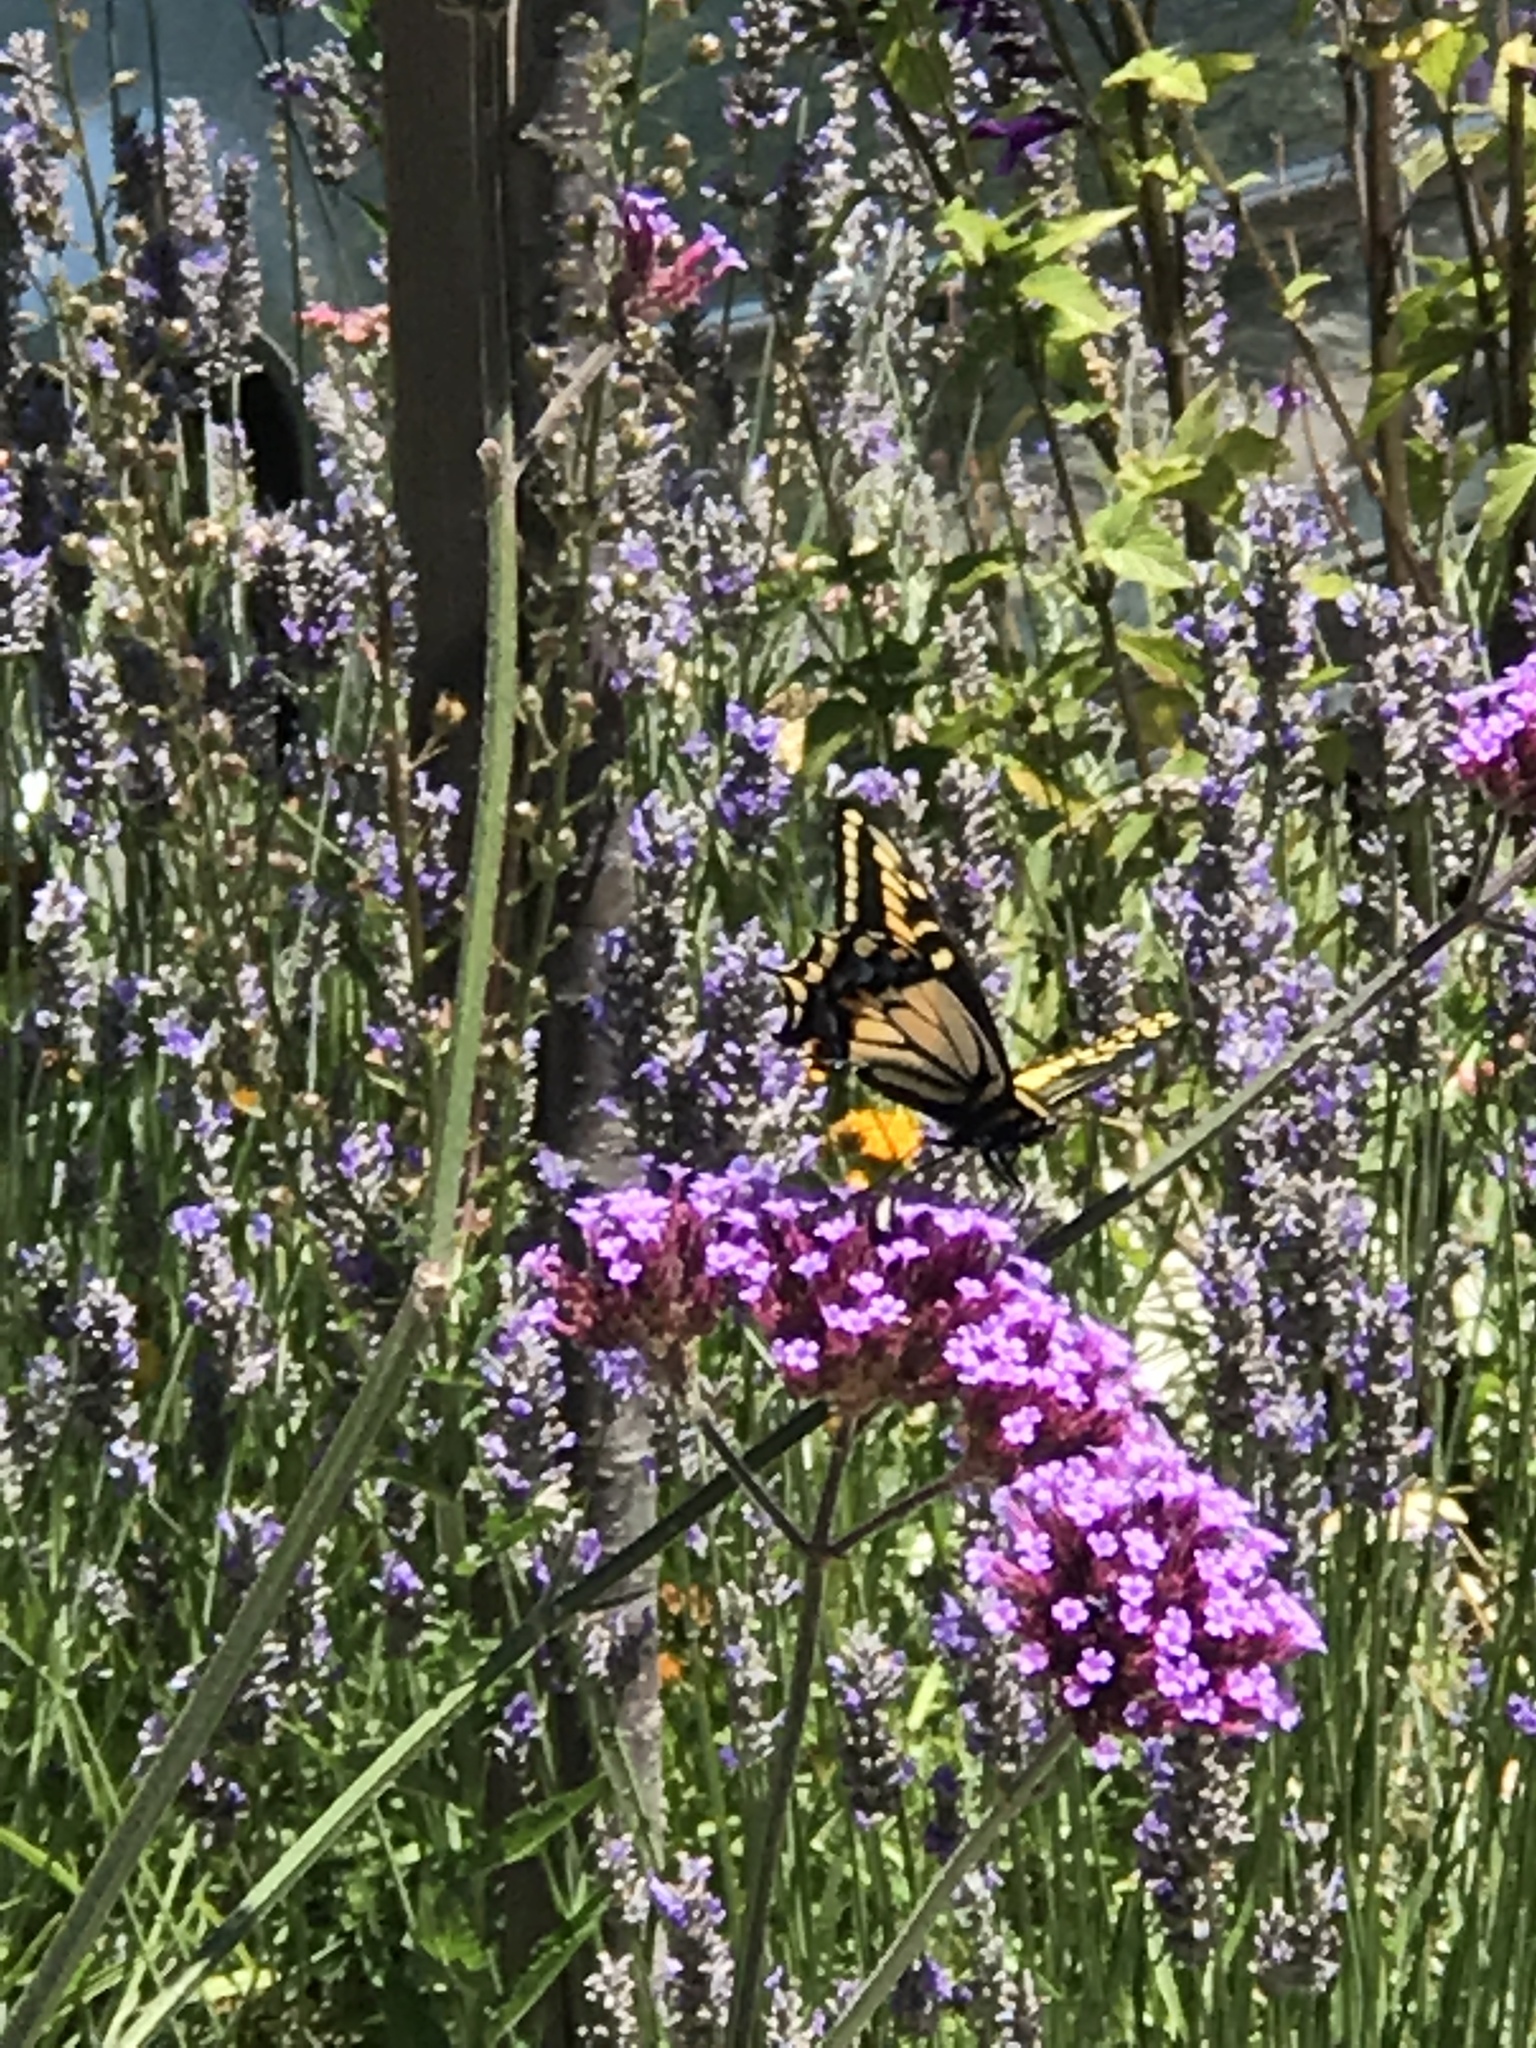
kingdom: Animalia
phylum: Arthropoda
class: Insecta
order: Lepidoptera
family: Papilionidae
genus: Papilio
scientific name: Papilio zelicaon
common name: Anise swallowtail
